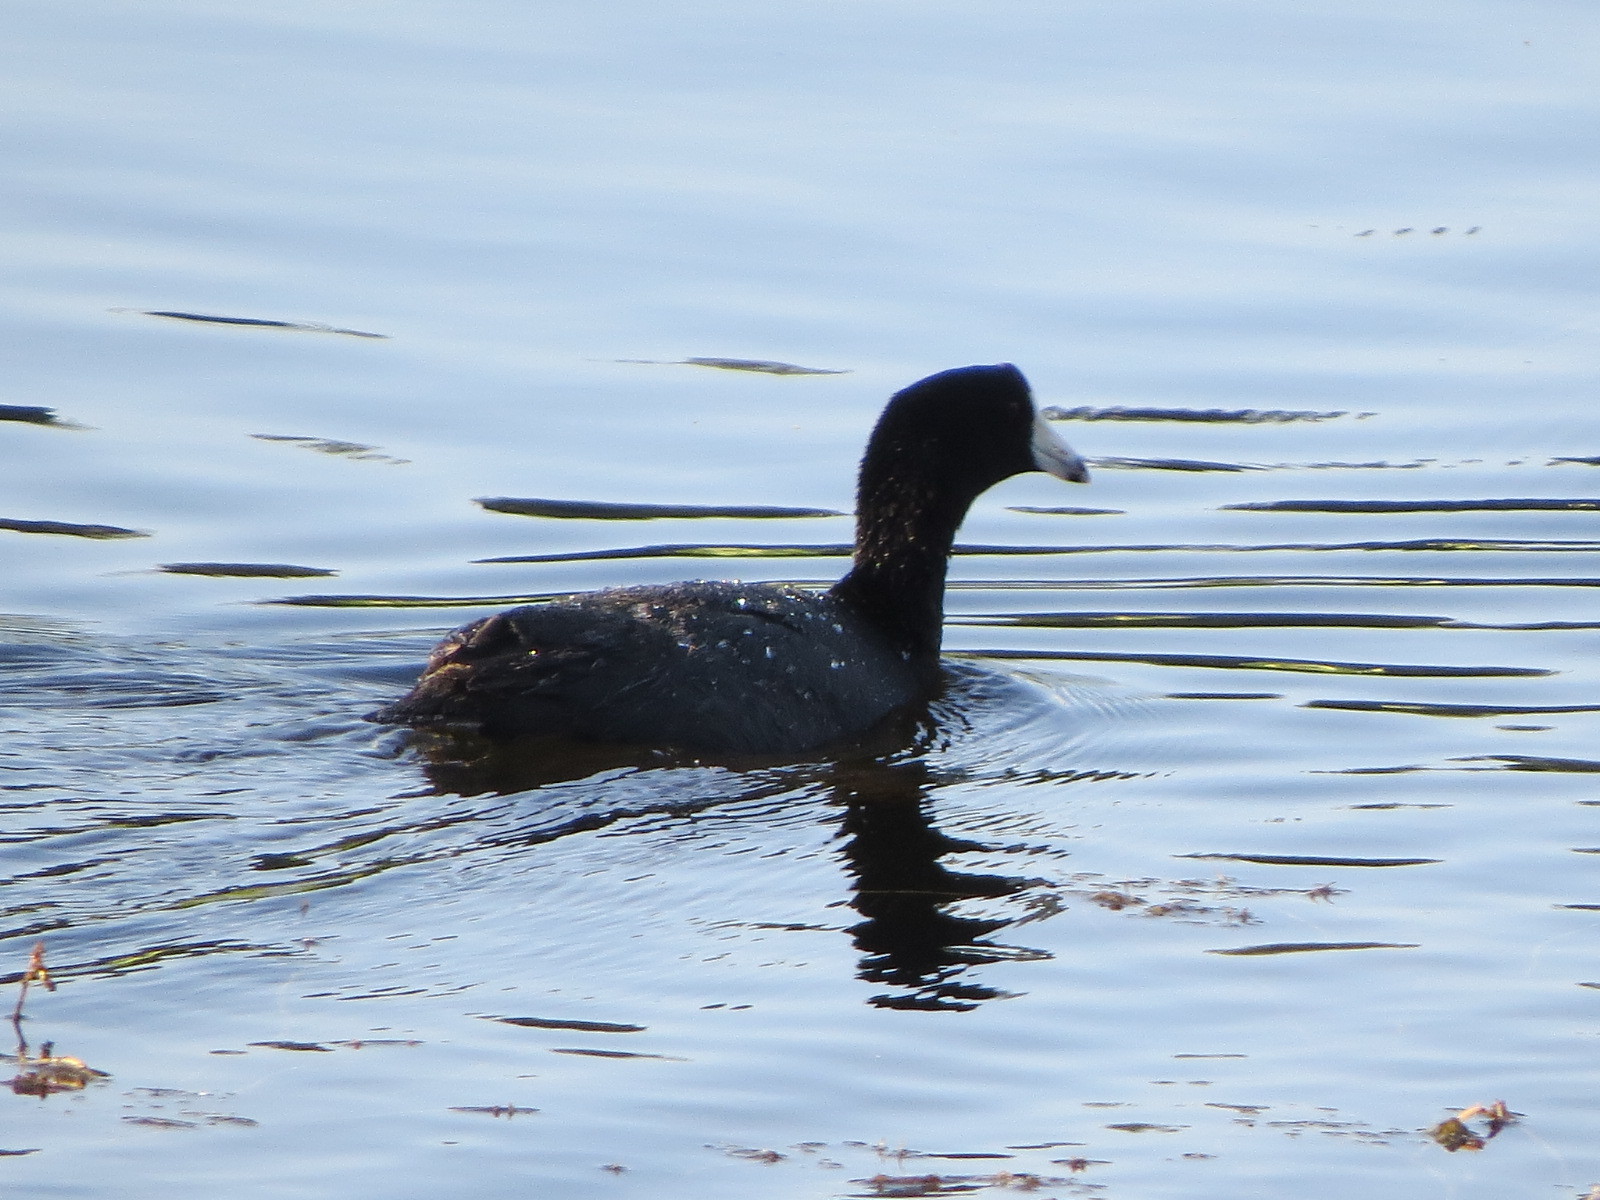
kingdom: Animalia
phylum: Chordata
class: Aves
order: Gruiformes
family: Rallidae
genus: Fulica
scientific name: Fulica americana
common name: American coot
